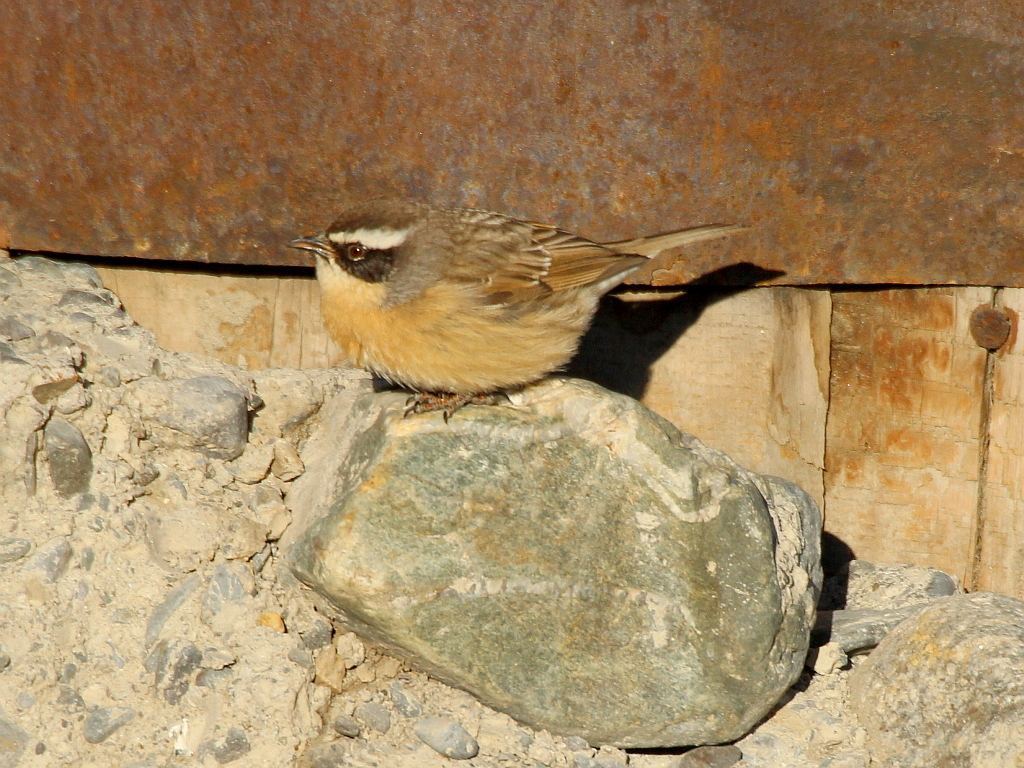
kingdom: Animalia
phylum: Chordata
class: Aves
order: Passeriformes
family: Prunellidae
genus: Prunella
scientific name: Prunella fulvescens
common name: Brown accentor
